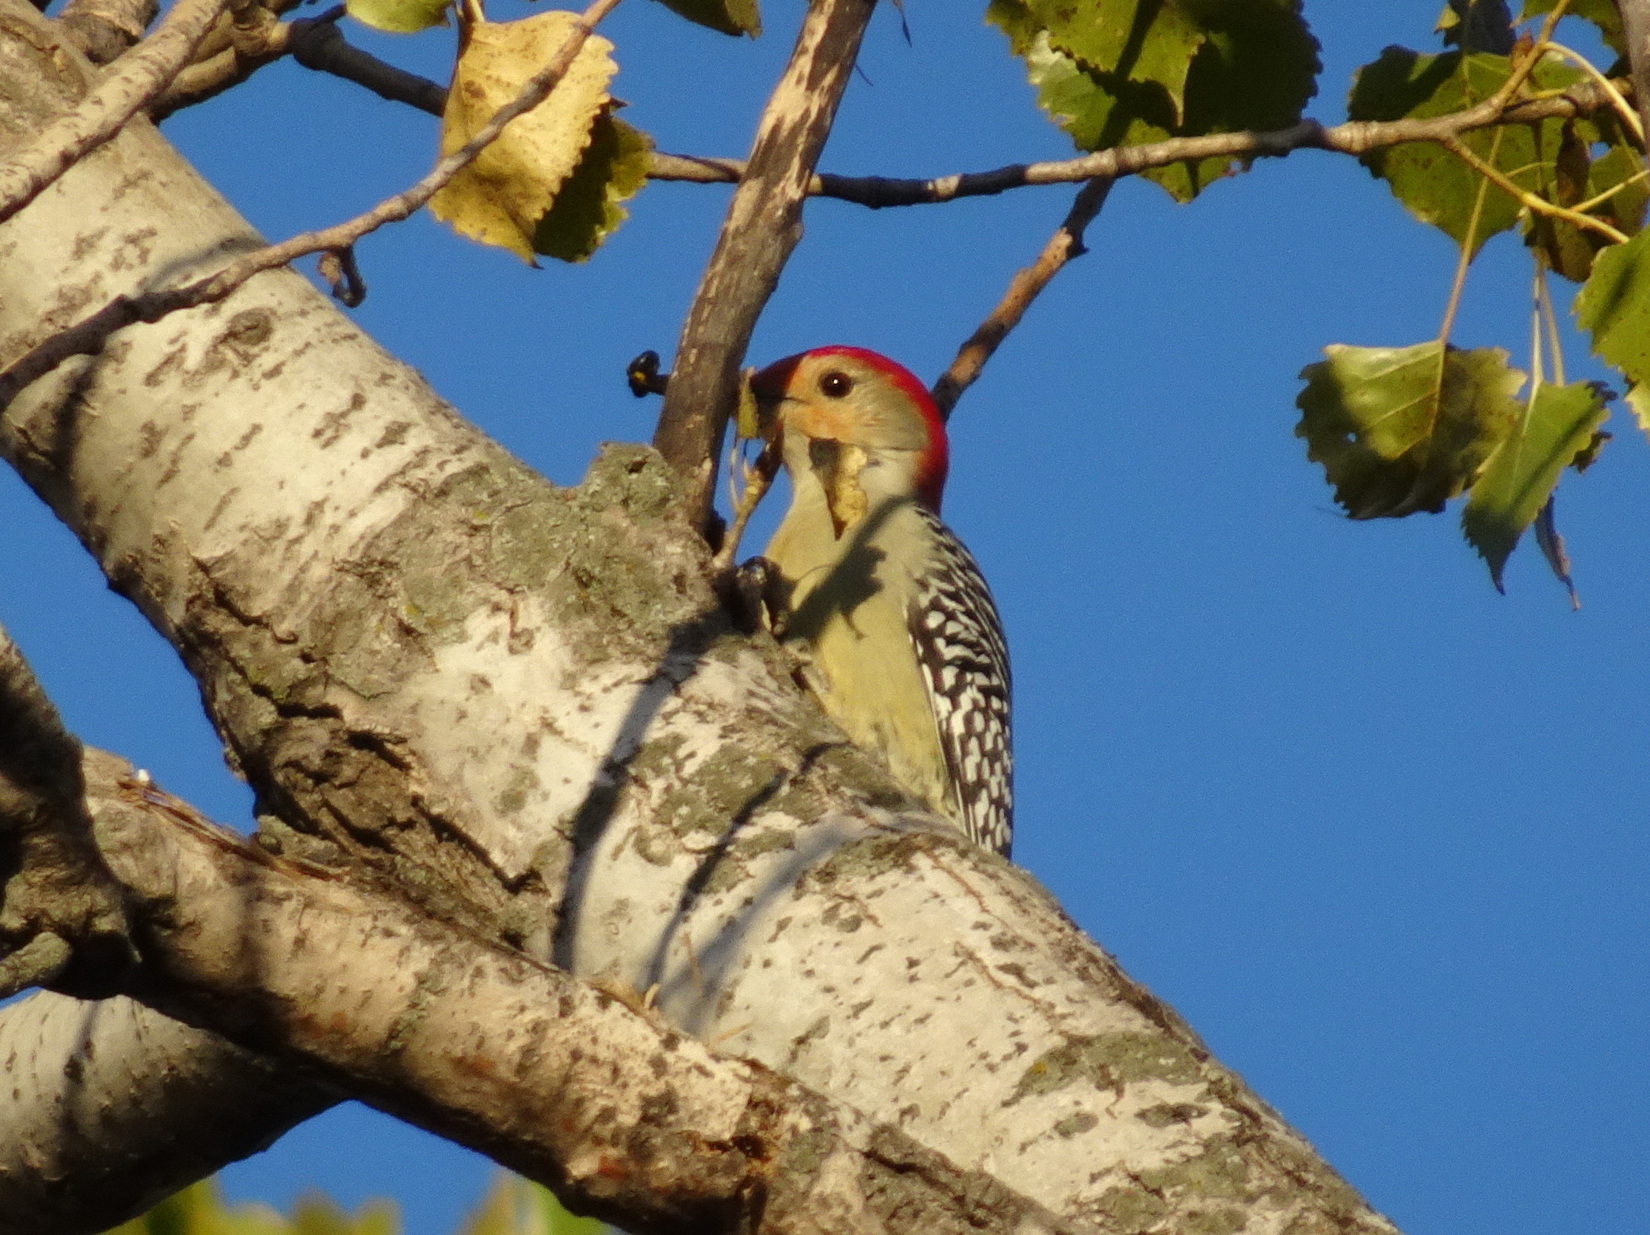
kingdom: Animalia
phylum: Chordata
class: Aves
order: Piciformes
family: Picidae
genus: Melanerpes
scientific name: Melanerpes carolinus
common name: Red-bellied woodpecker
